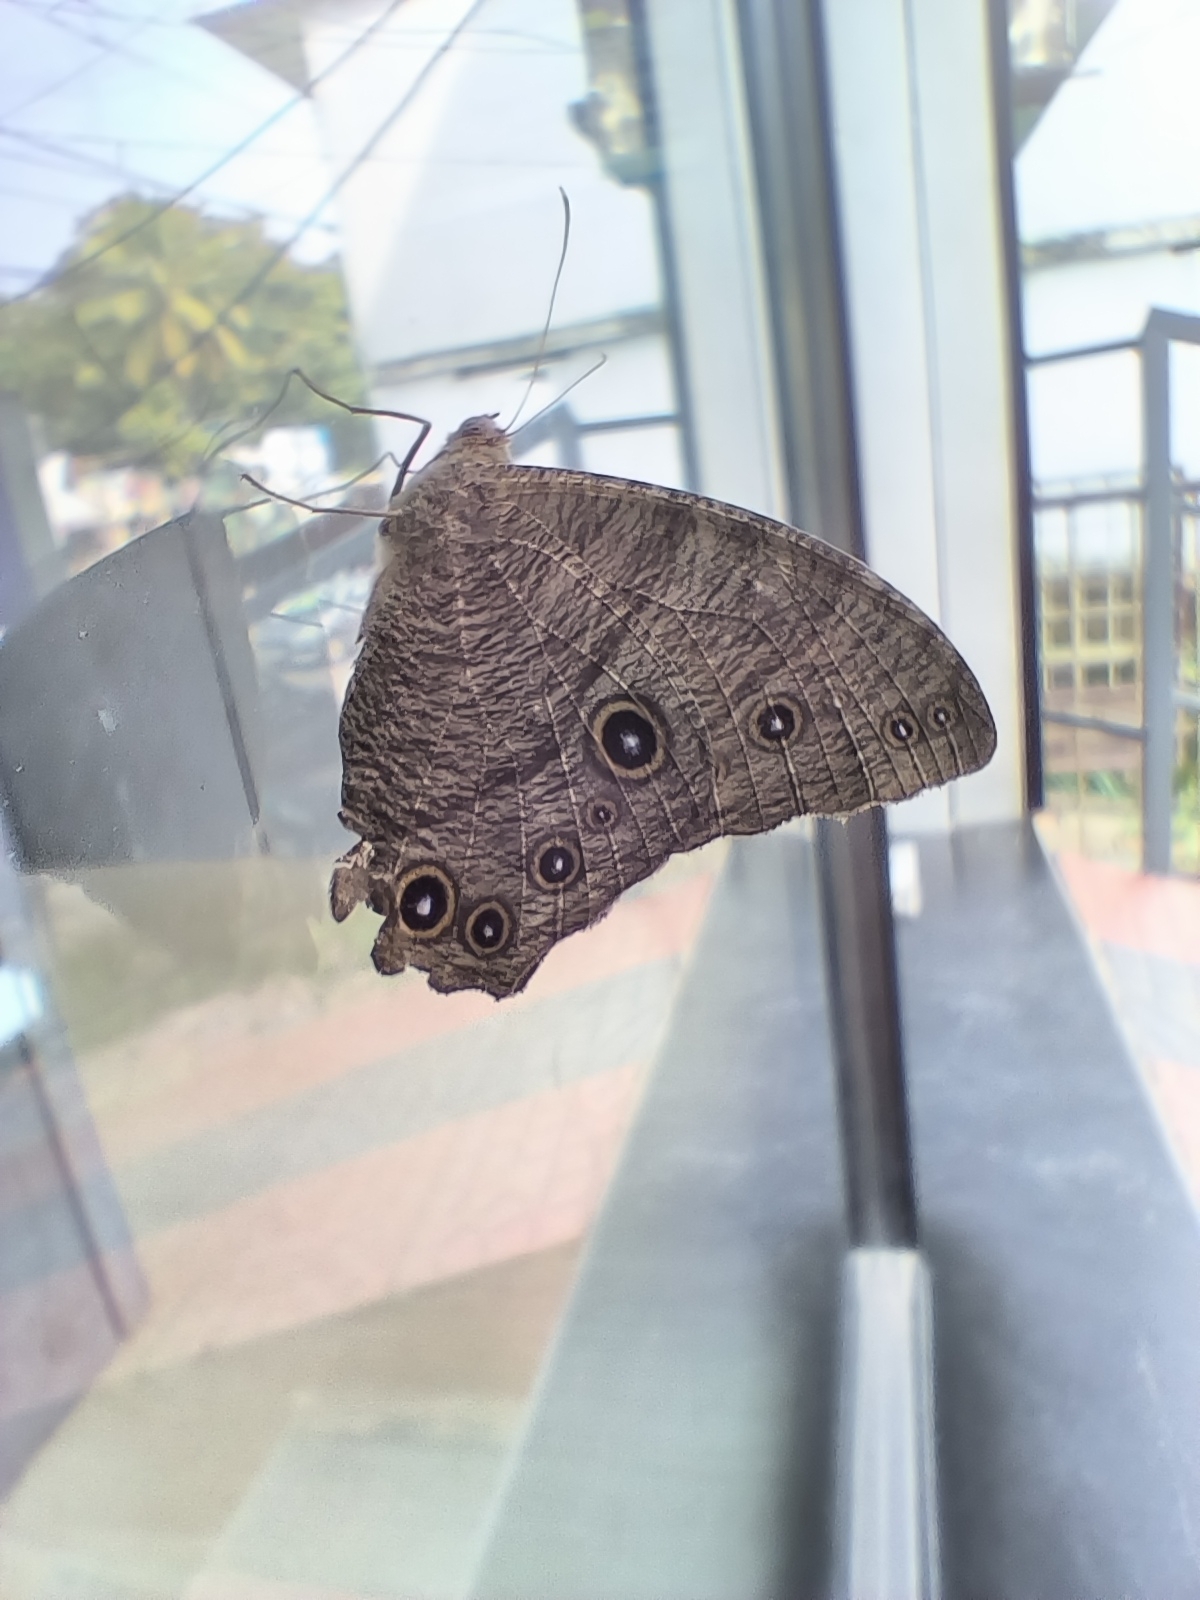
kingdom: Animalia
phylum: Arthropoda
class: Insecta
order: Lepidoptera
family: Nymphalidae
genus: Melanitis
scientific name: Melanitis leda
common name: Twilight brown
